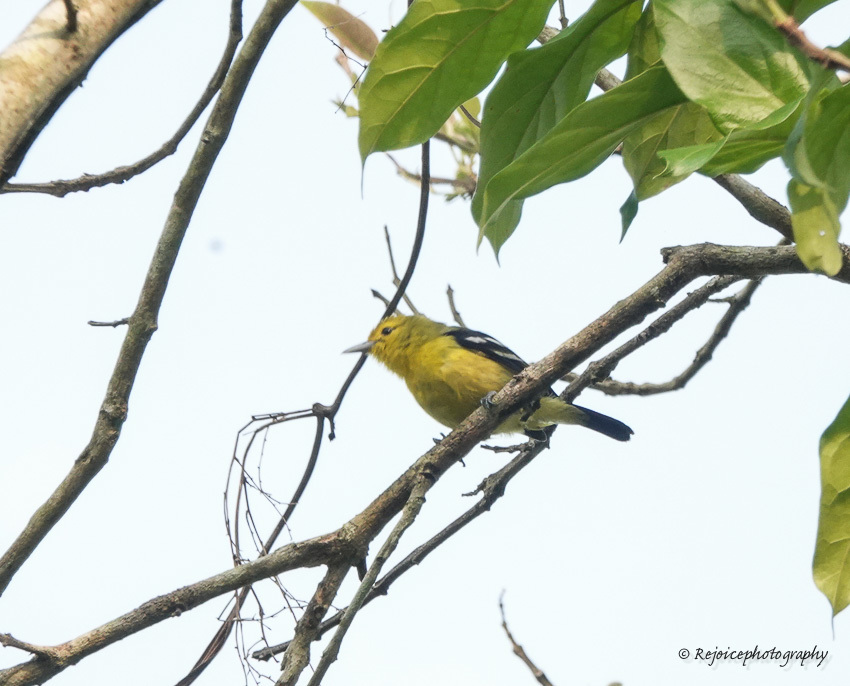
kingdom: Animalia
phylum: Chordata
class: Aves
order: Passeriformes
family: Aegithinidae
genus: Aegithina
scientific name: Aegithina tiphia
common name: Common iora
